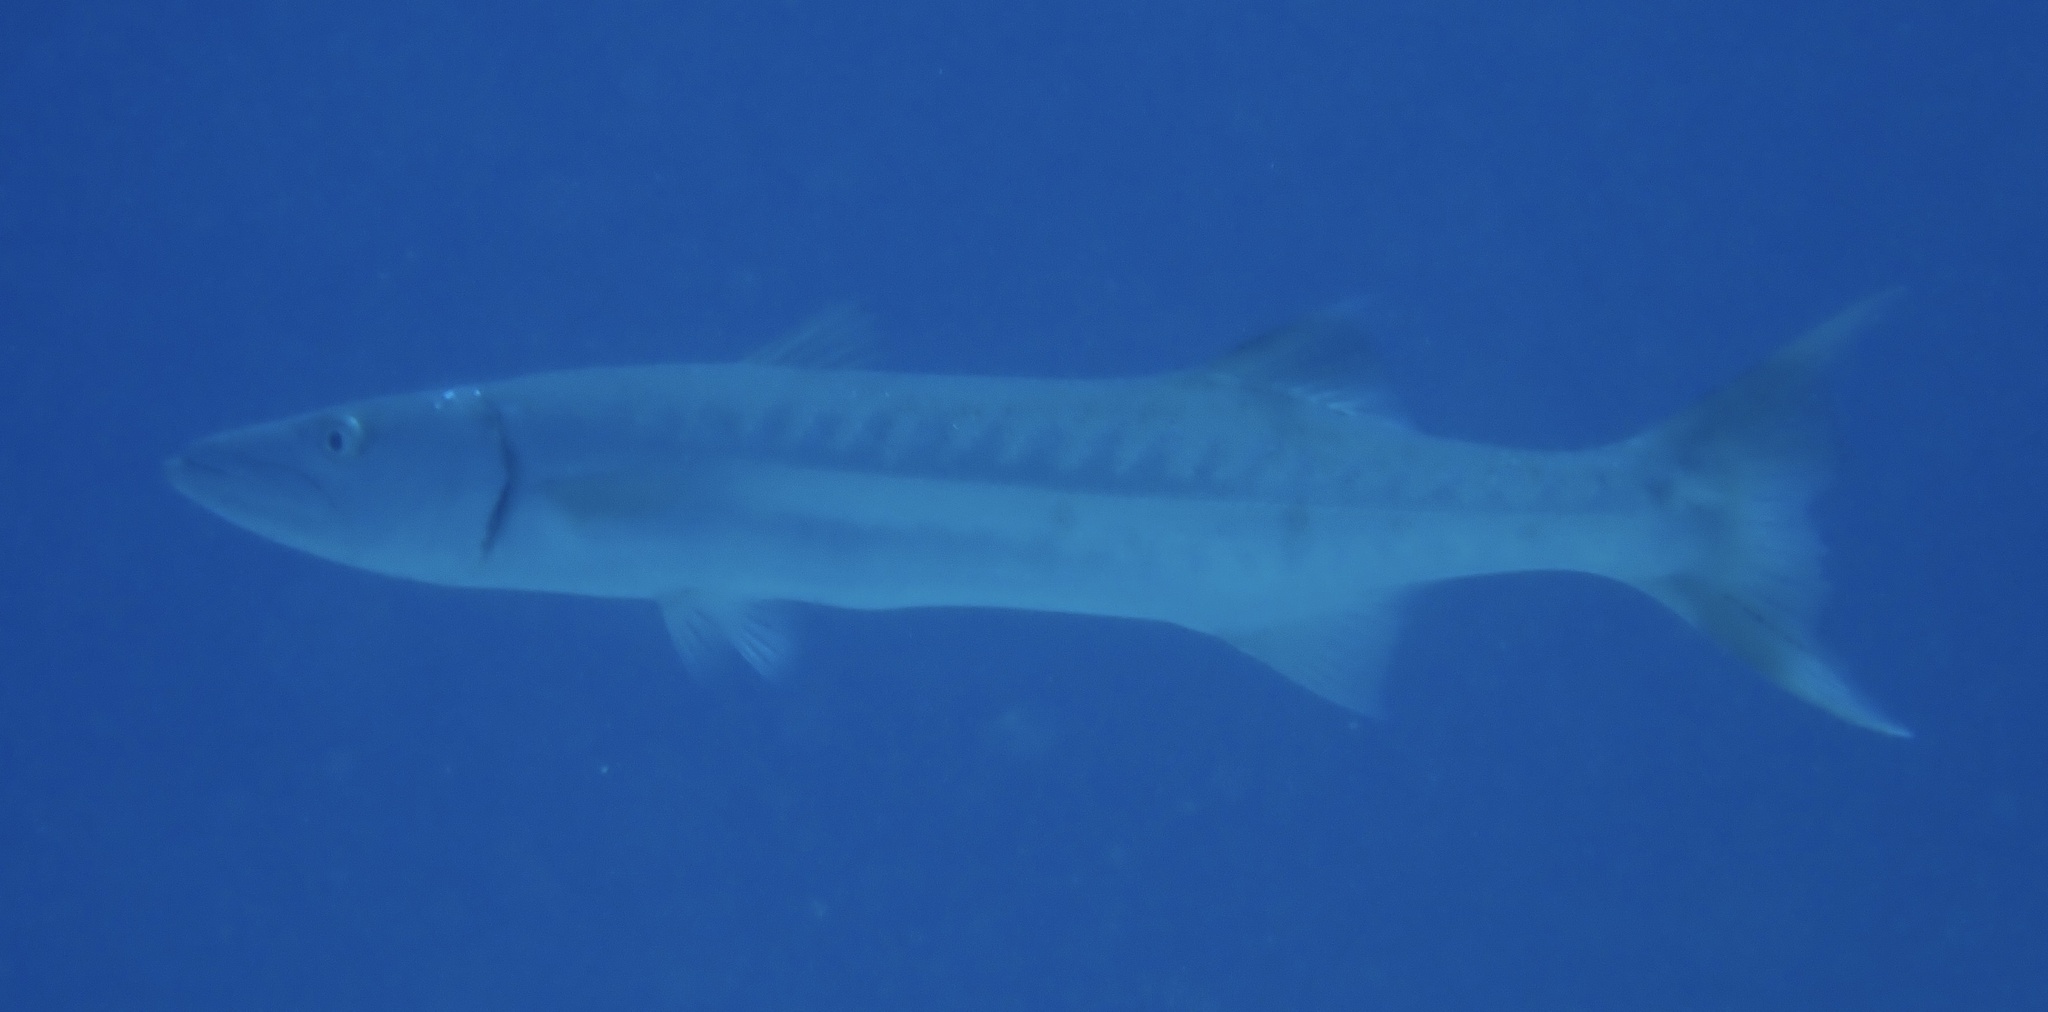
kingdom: Animalia
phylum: Chordata
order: Perciformes
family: Sphyraenidae
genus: Sphyraena
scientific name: Sphyraena barracuda
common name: Great barracuda
